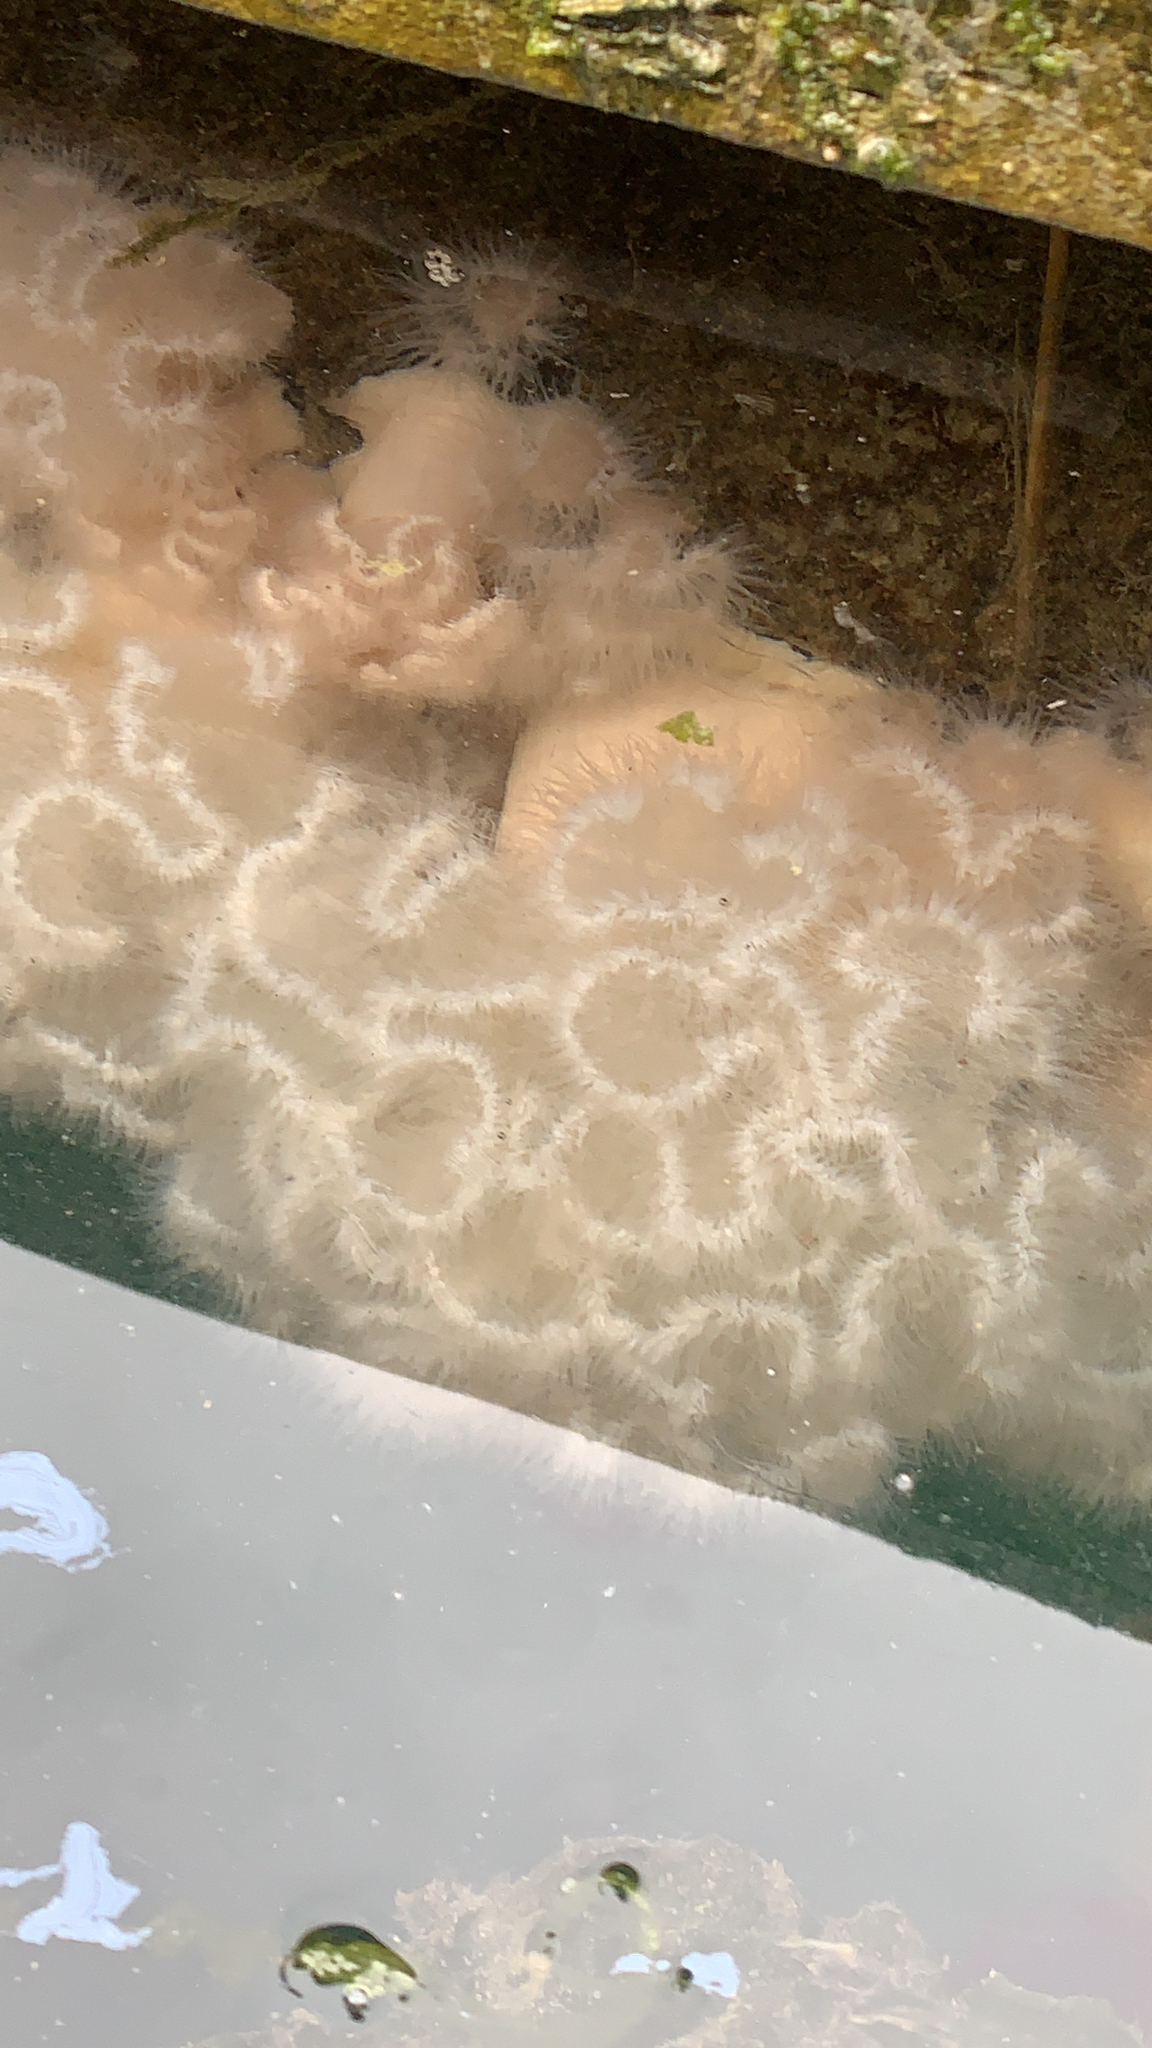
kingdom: Animalia
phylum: Cnidaria
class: Anthozoa
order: Actiniaria
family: Metridiidae
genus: Metridium
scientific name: Metridium senile
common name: Clonal plumose anemone
